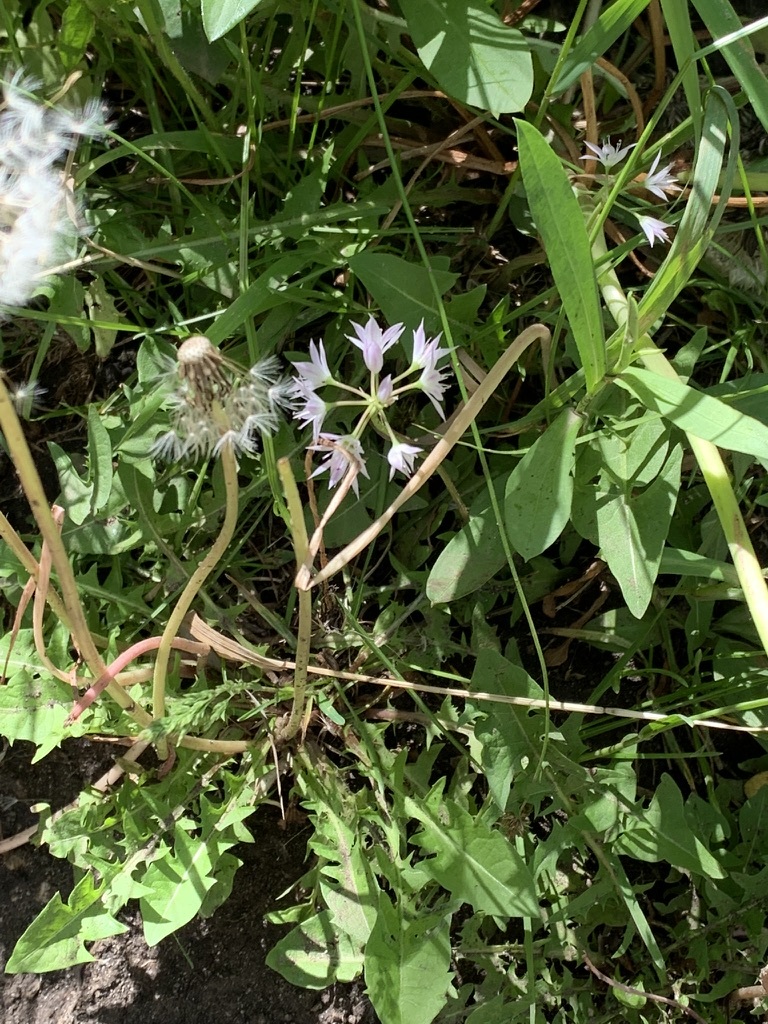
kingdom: Plantae
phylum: Tracheophyta
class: Liliopsida
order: Asparagales
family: Amaryllidaceae
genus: Allium
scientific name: Allium bisceptrum
